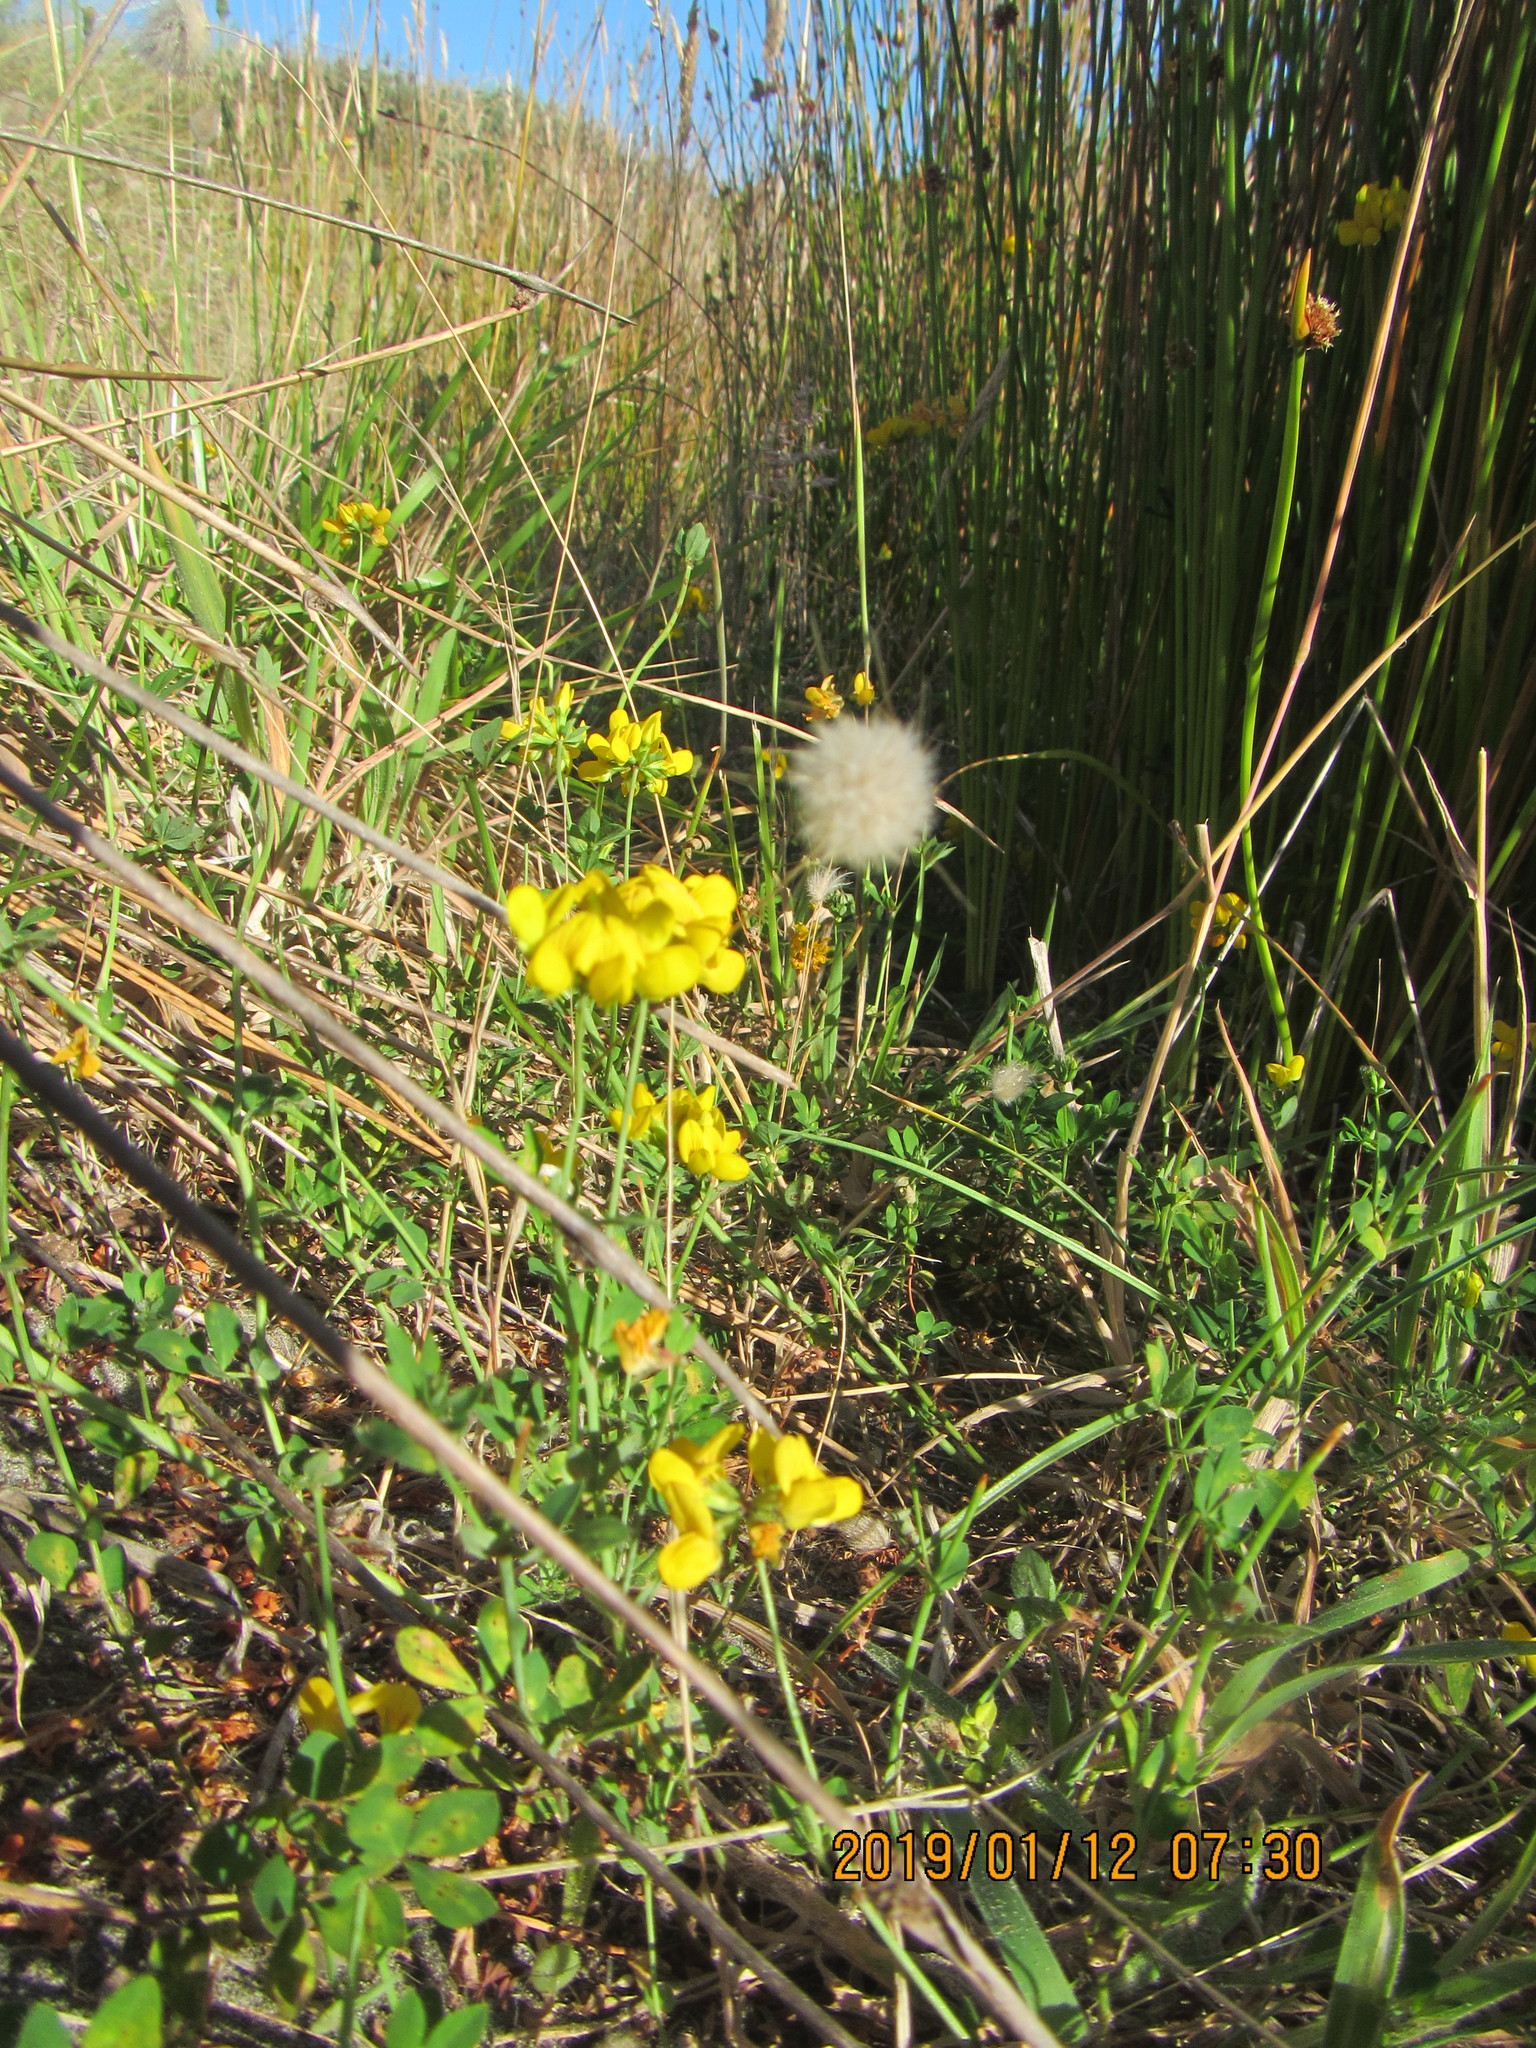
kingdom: Plantae
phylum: Tracheophyta
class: Magnoliopsida
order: Fabales
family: Fabaceae
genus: Lotus
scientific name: Lotus pedunculatus
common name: Greater birdsfoot-trefoil
